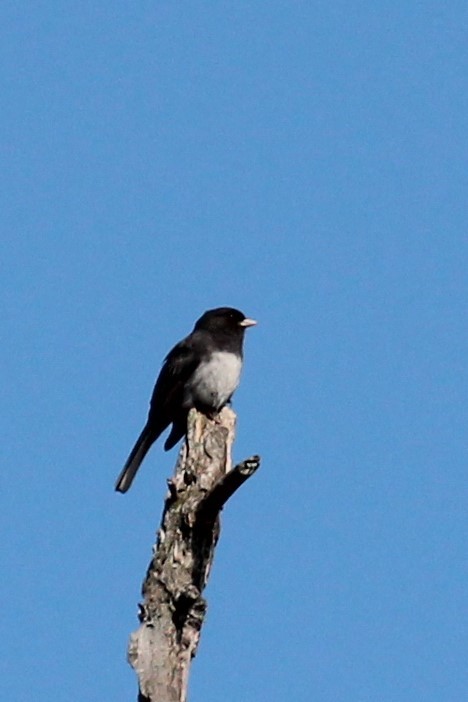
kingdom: Animalia
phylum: Chordata
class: Aves
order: Passeriformes
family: Passerellidae
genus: Junco
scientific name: Junco hyemalis
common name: Dark-eyed junco
